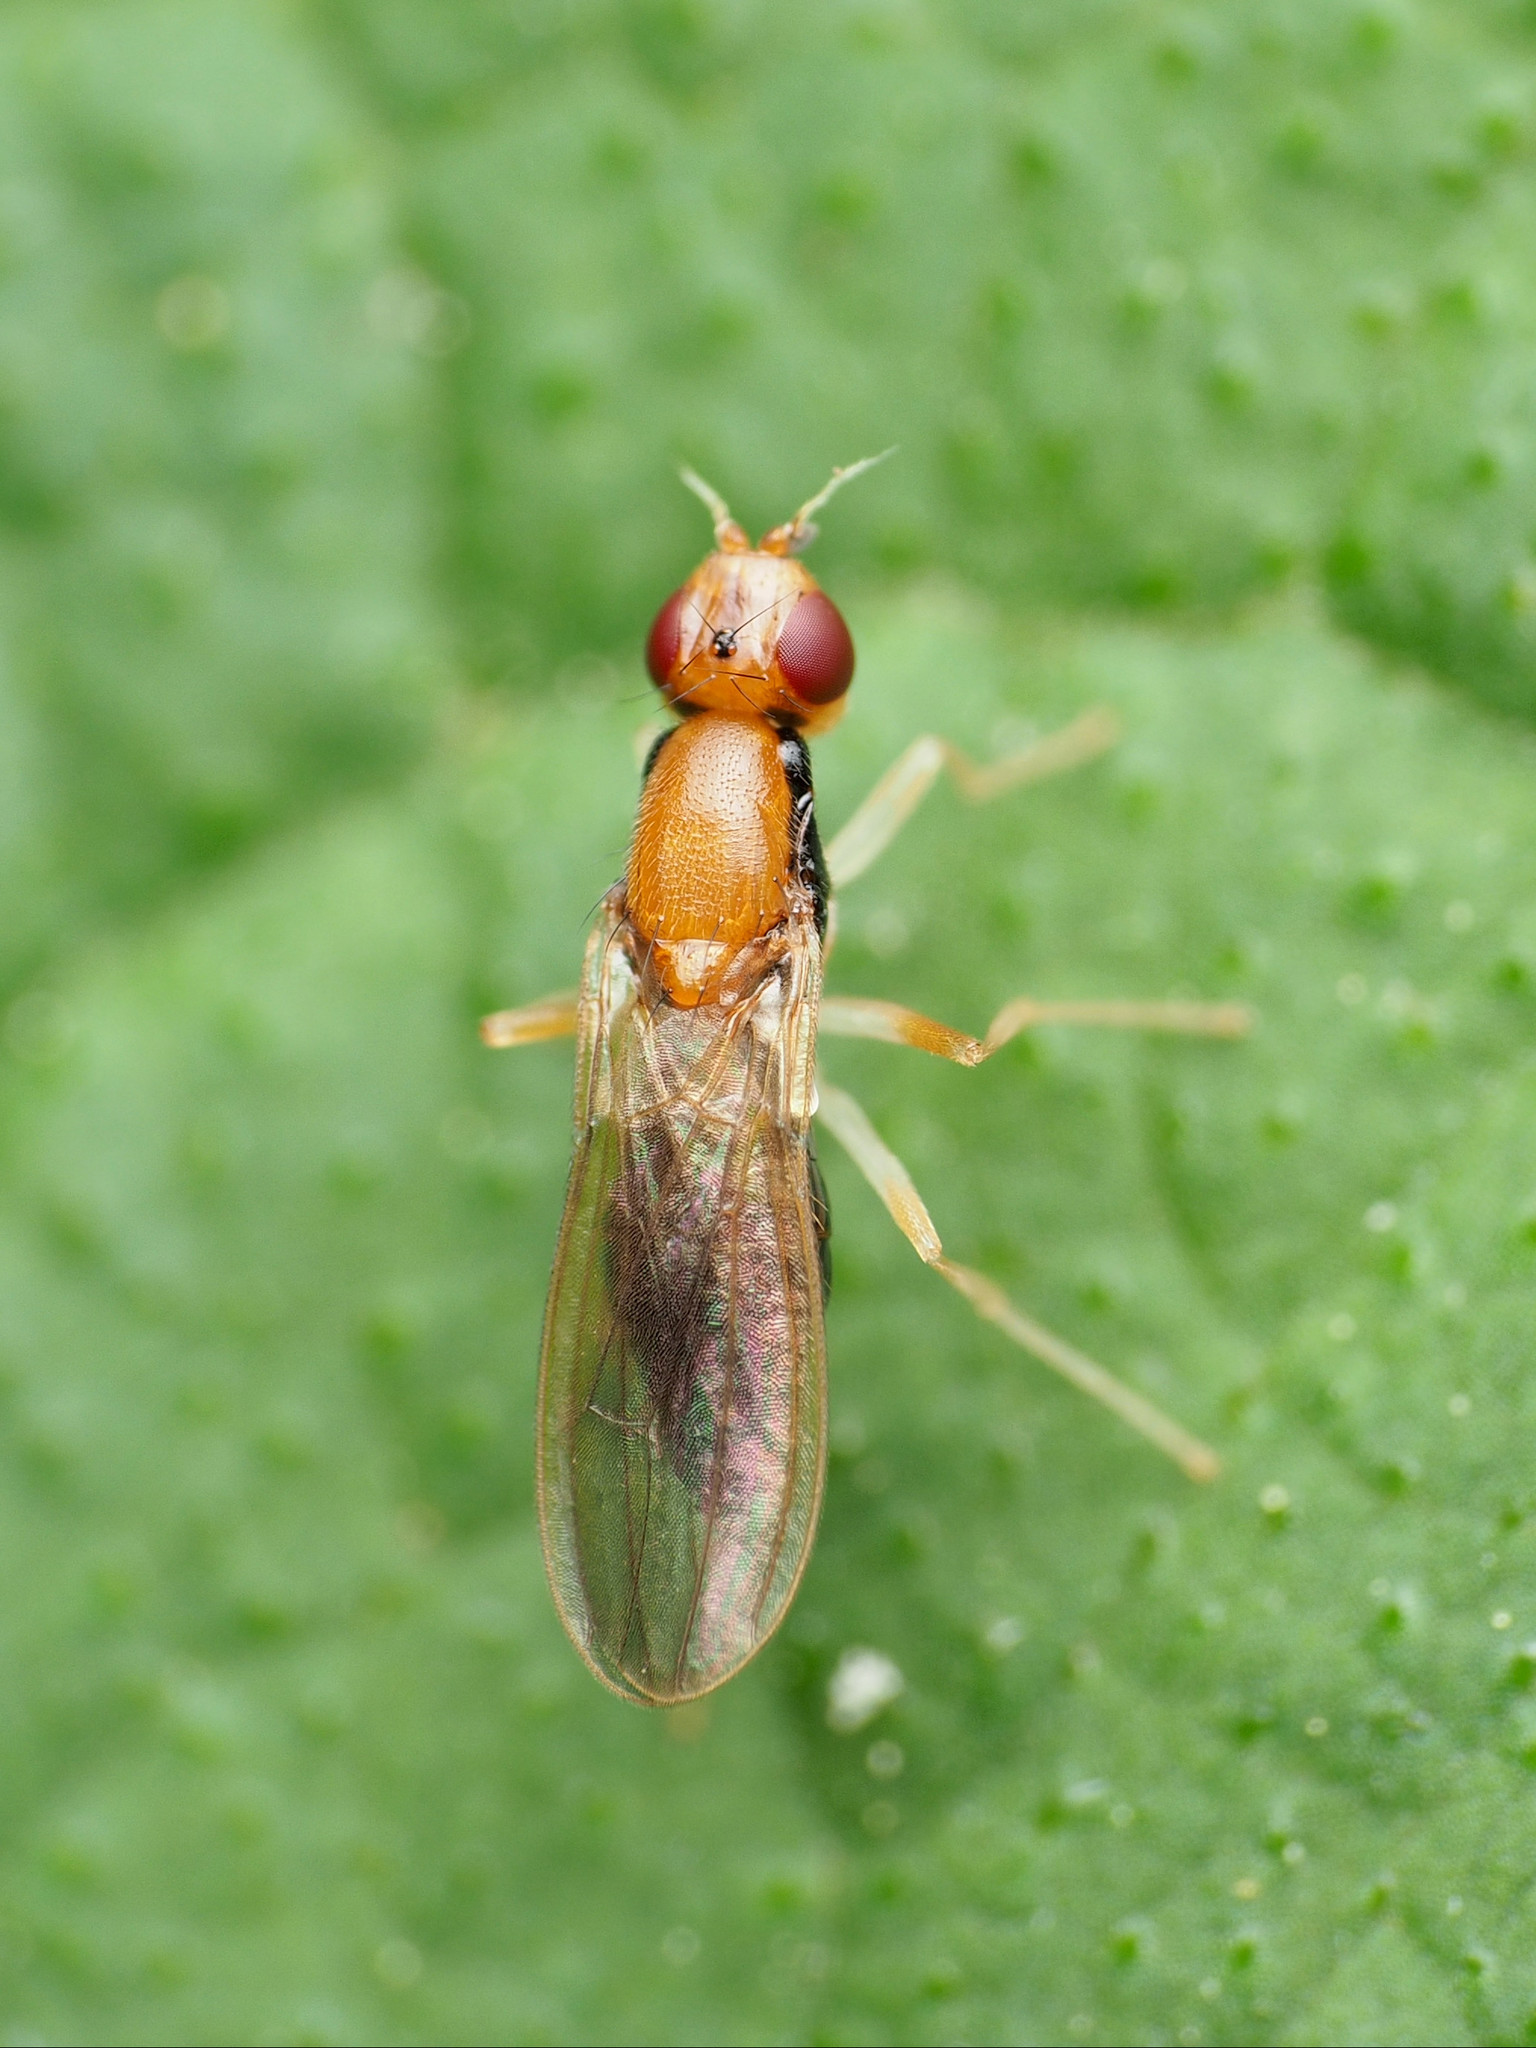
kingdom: Animalia
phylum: Arthropoda
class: Insecta
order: Diptera
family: Psilidae
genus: Psila
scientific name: Psila lateralis
